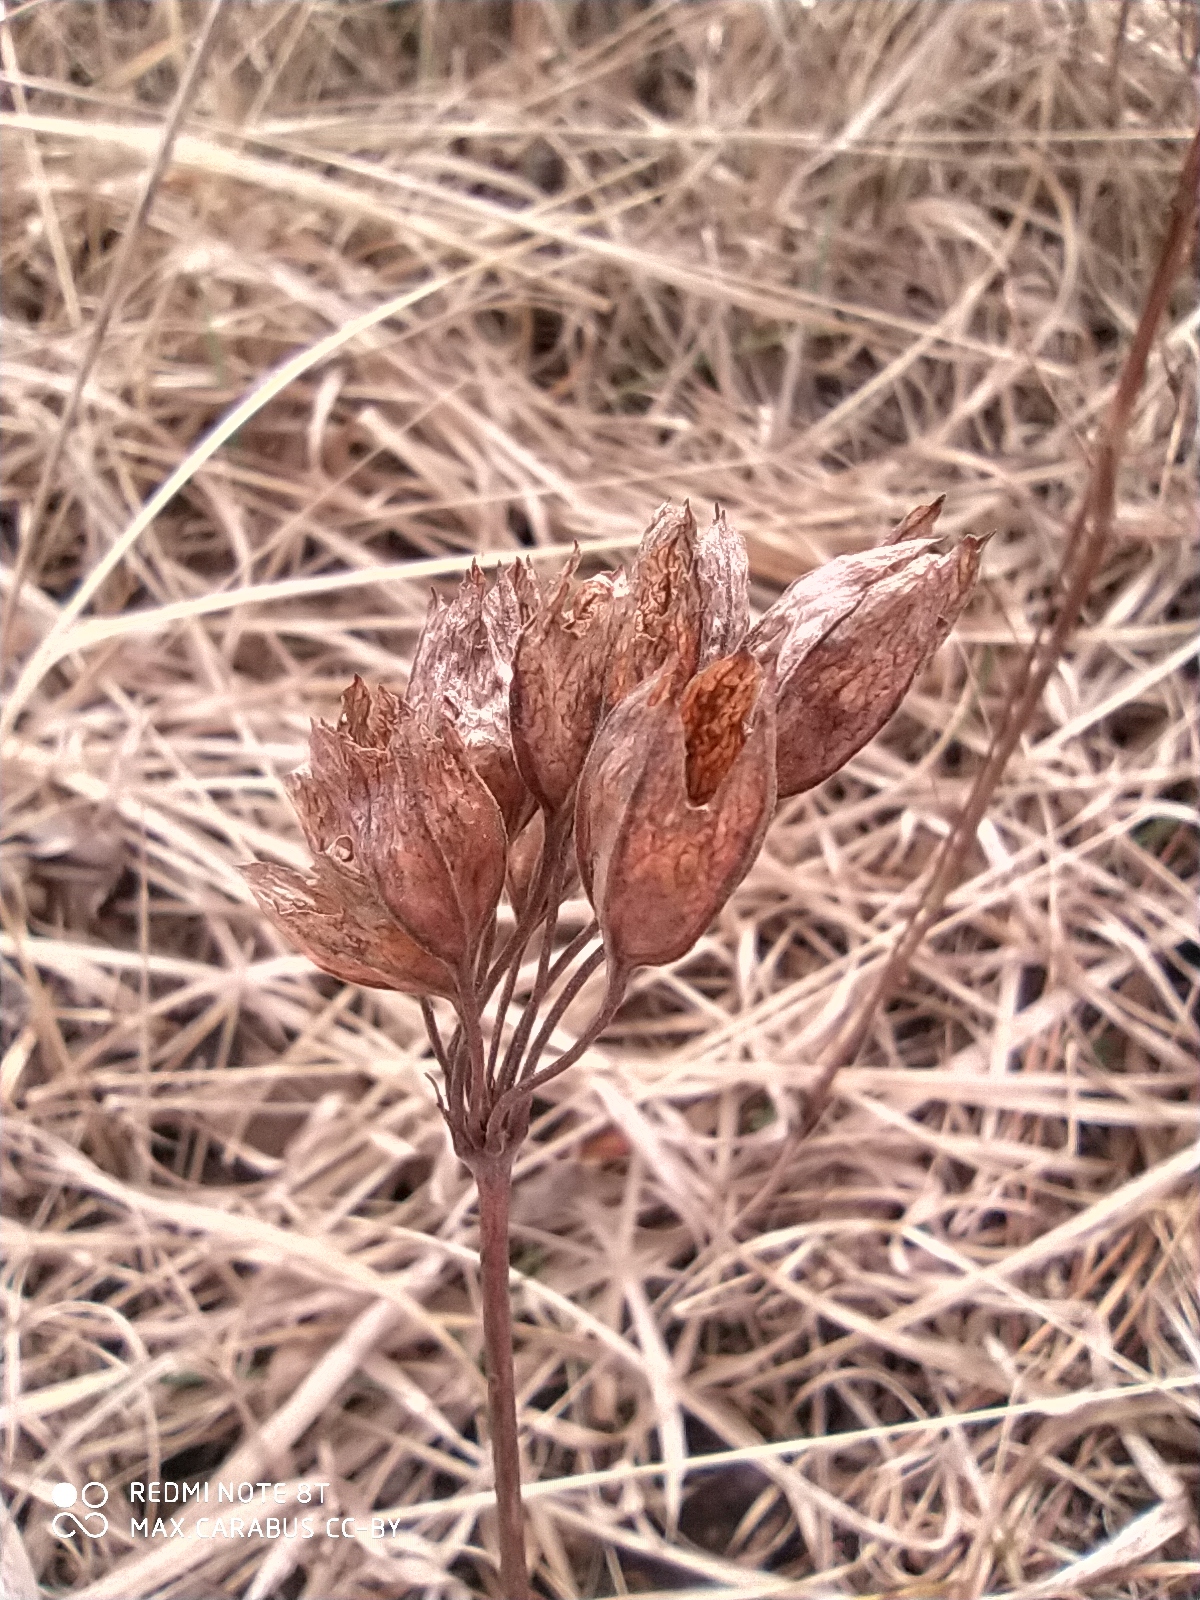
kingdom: Plantae
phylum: Tracheophyta
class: Magnoliopsida
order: Ericales
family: Primulaceae
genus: Primula
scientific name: Primula veris
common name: Cowslip
